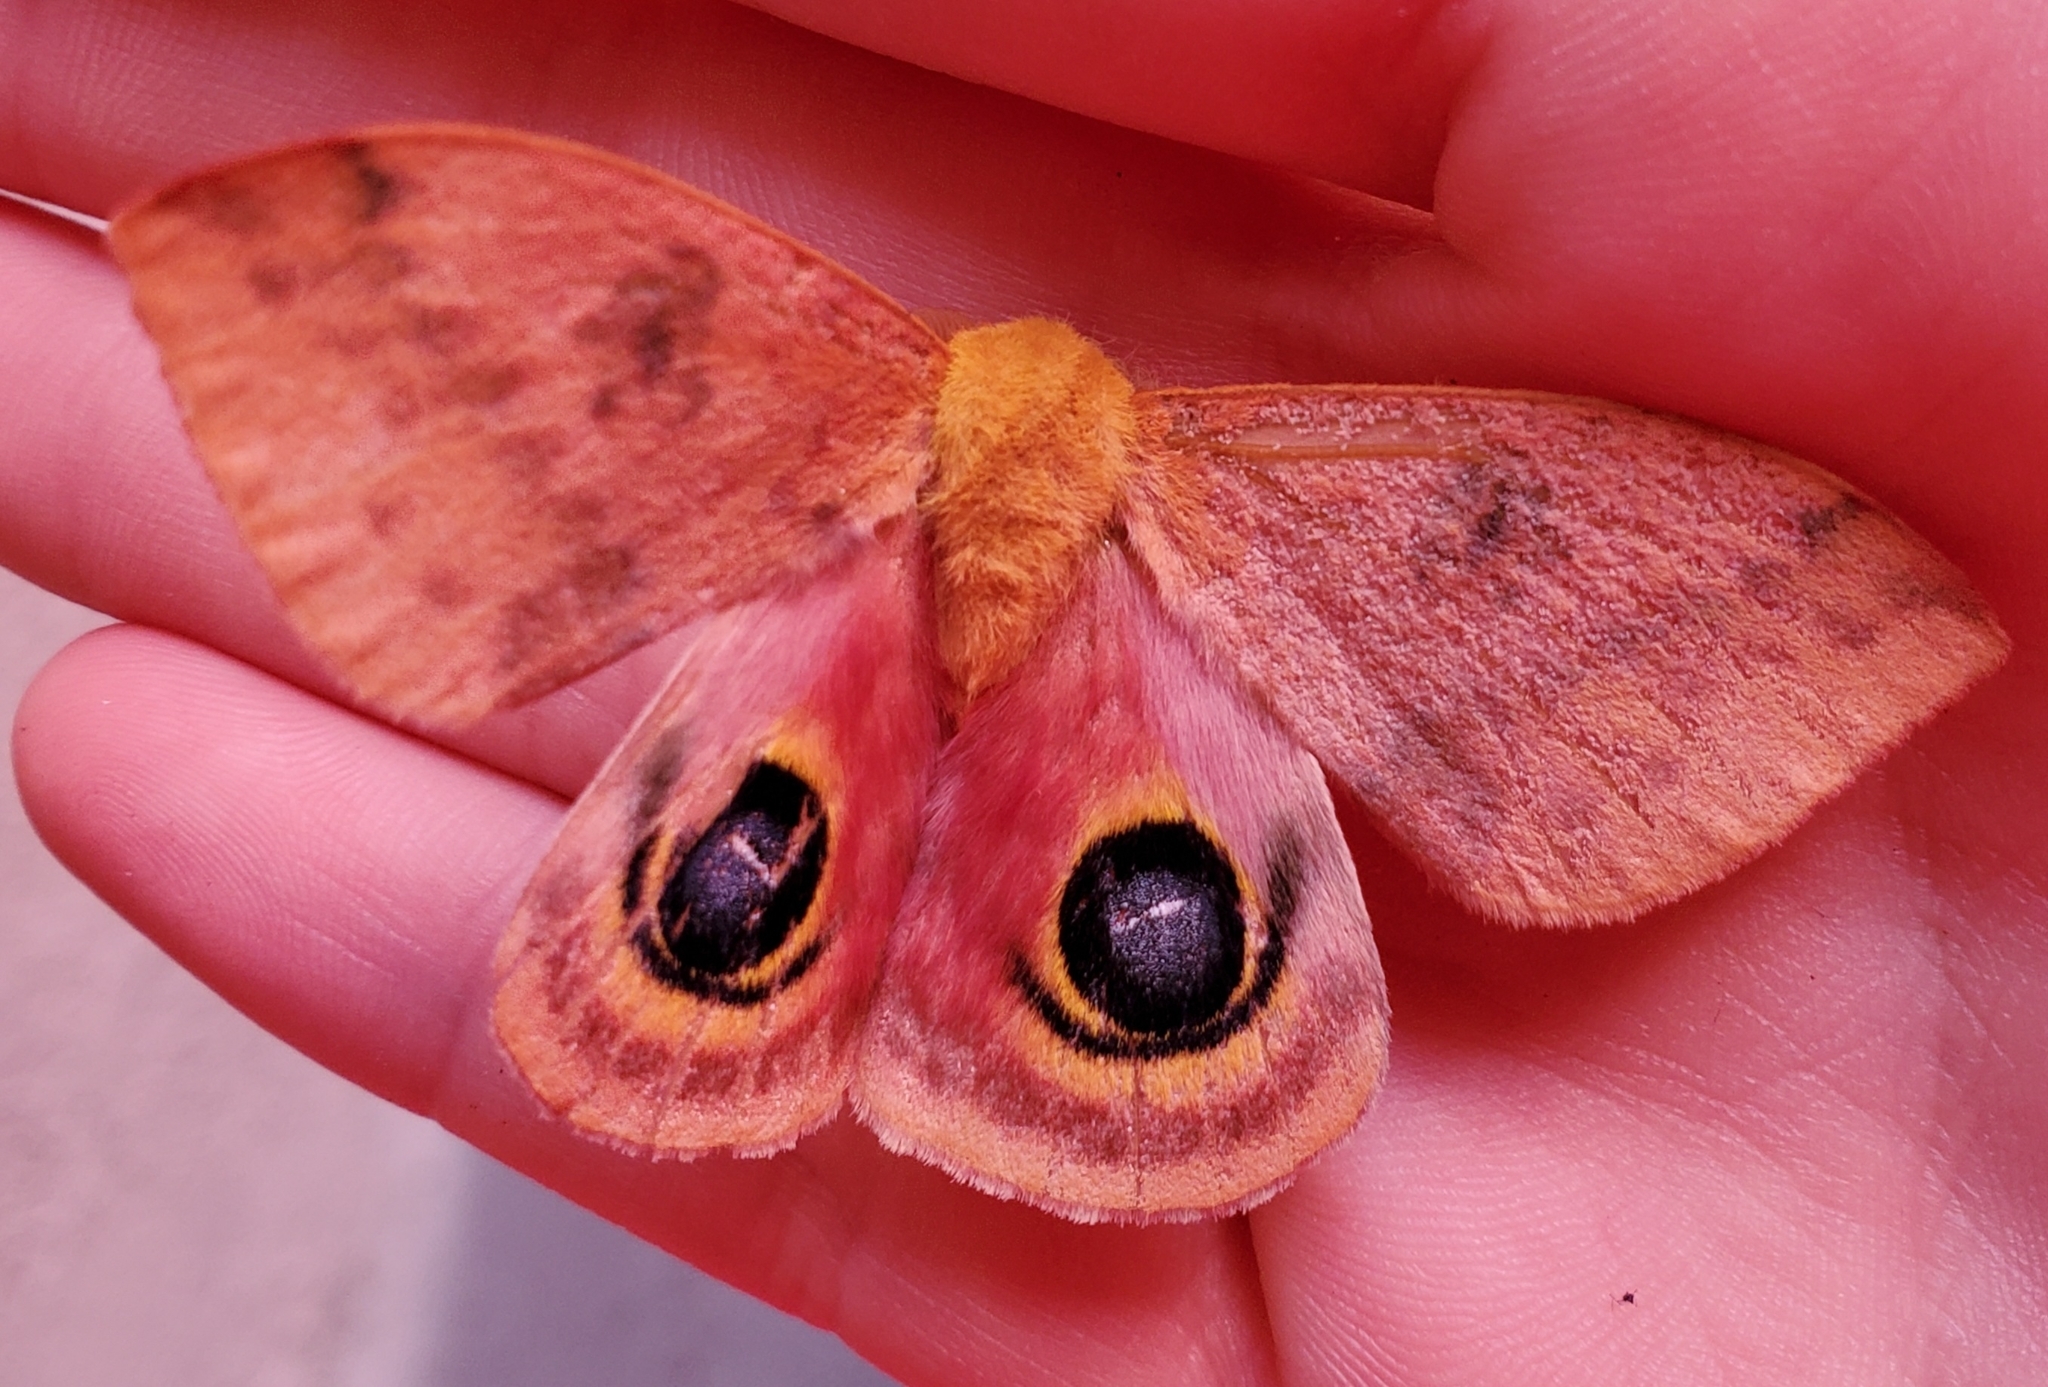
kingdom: Animalia
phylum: Arthropoda
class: Insecta
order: Lepidoptera
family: Saturniidae
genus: Automeris
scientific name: Automeris io
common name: Io moth
